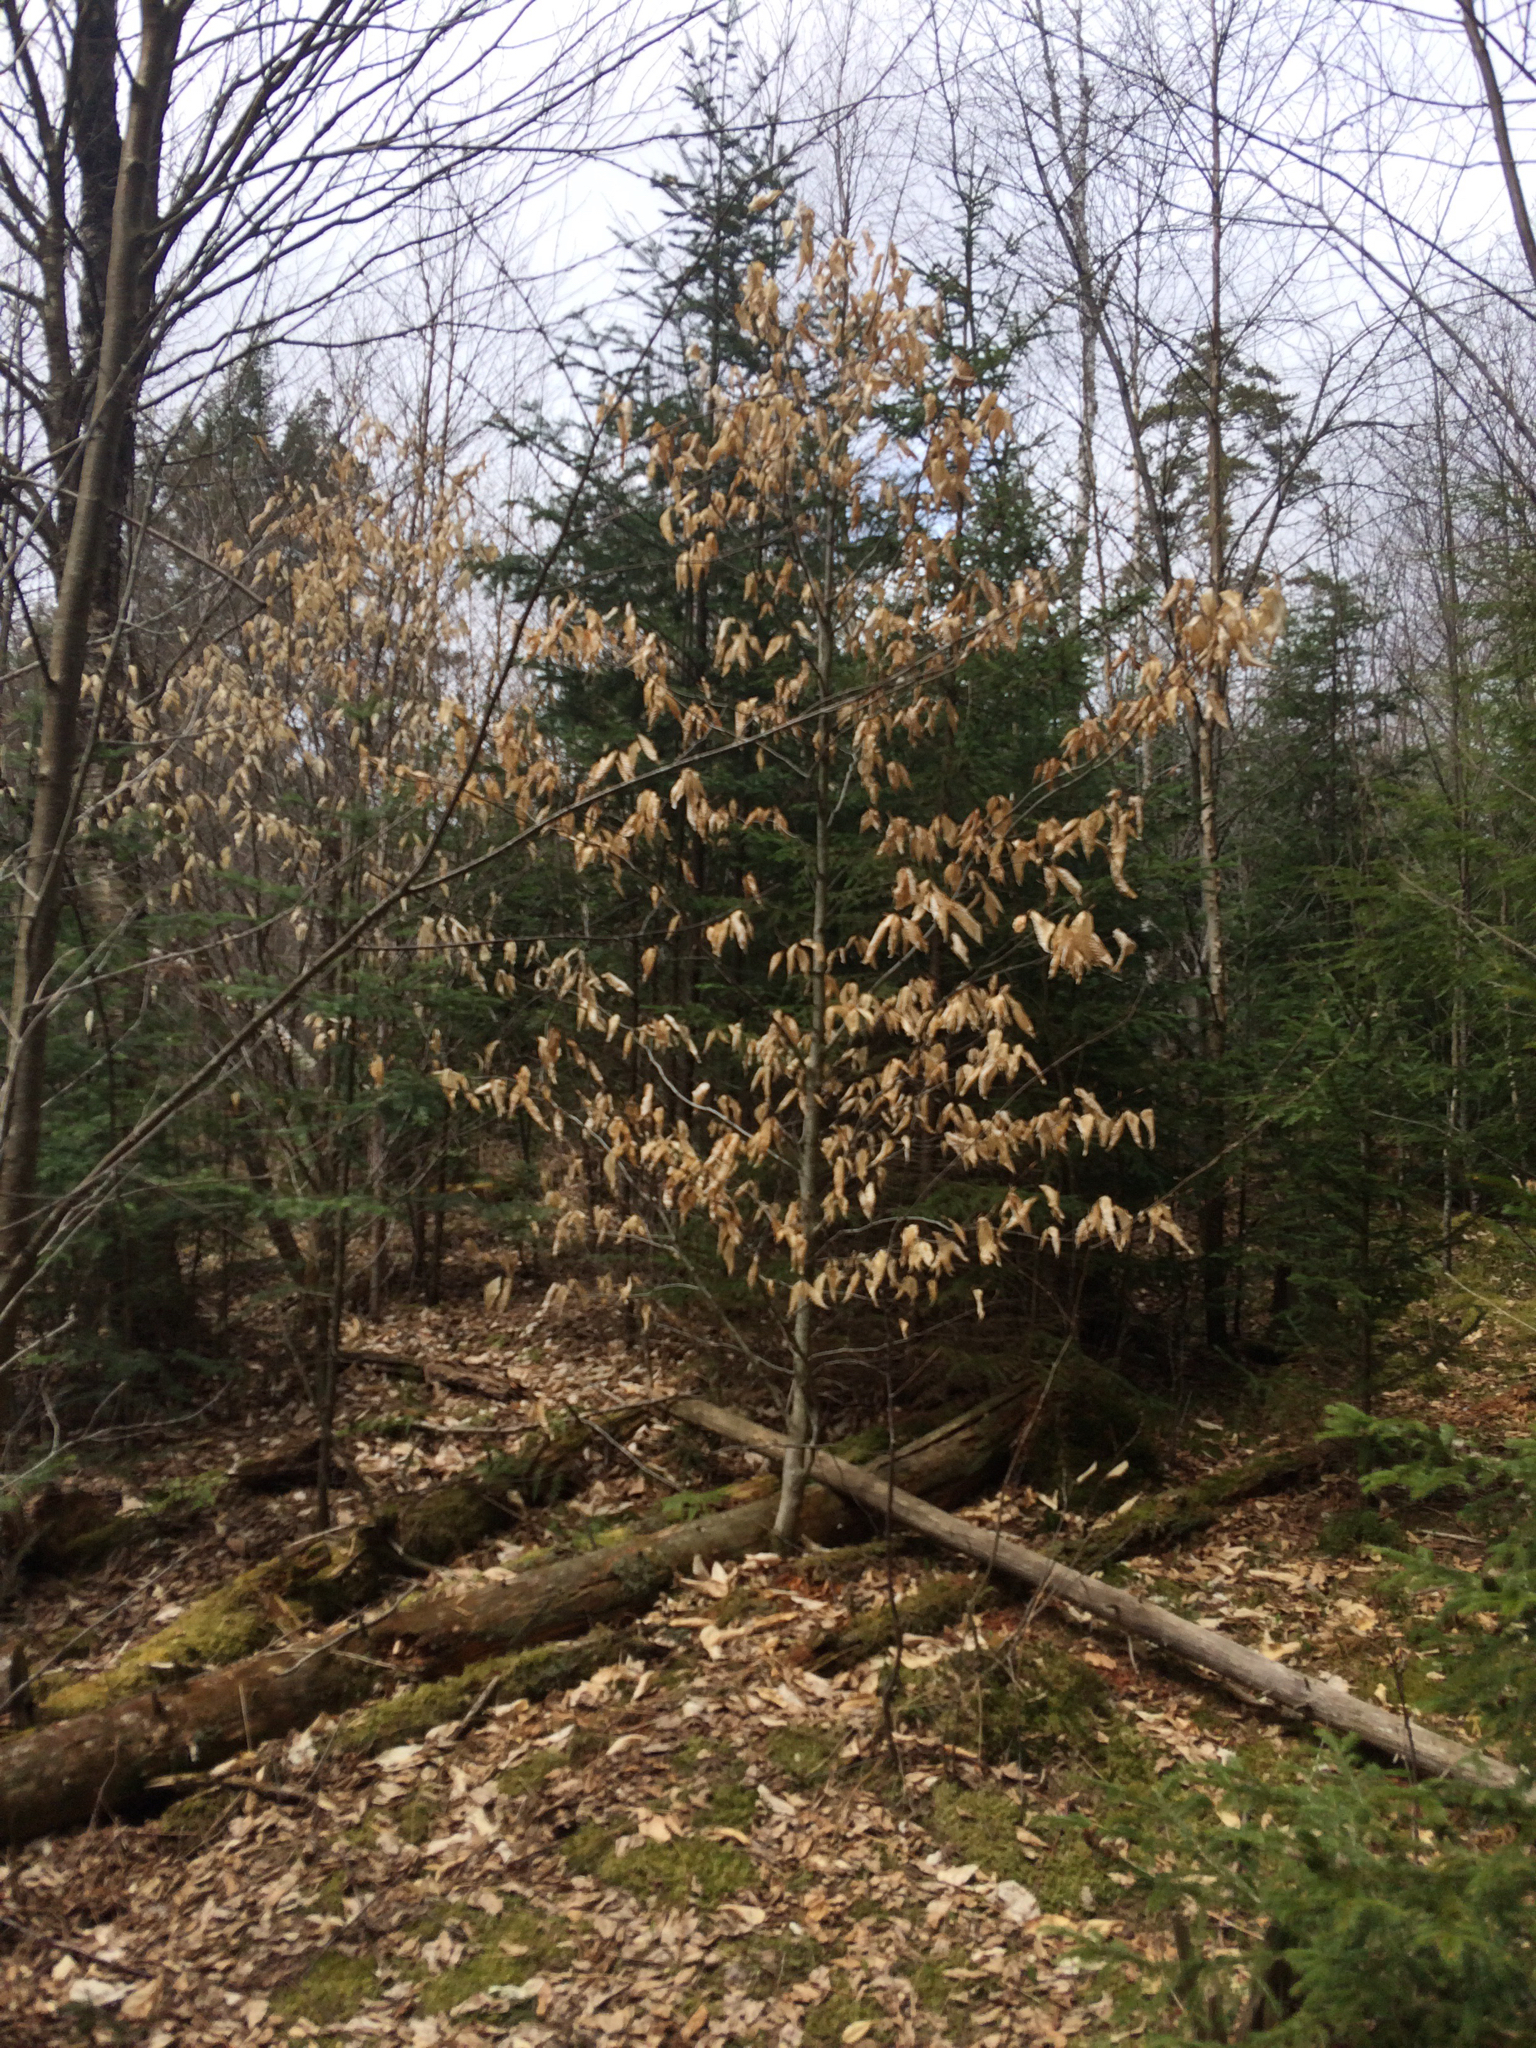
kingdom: Plantae
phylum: Tracheophyta
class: Magnoliopsida
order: Fagales
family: Fagaceae
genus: Fagus
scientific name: Fagus grandifolia
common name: American beech
